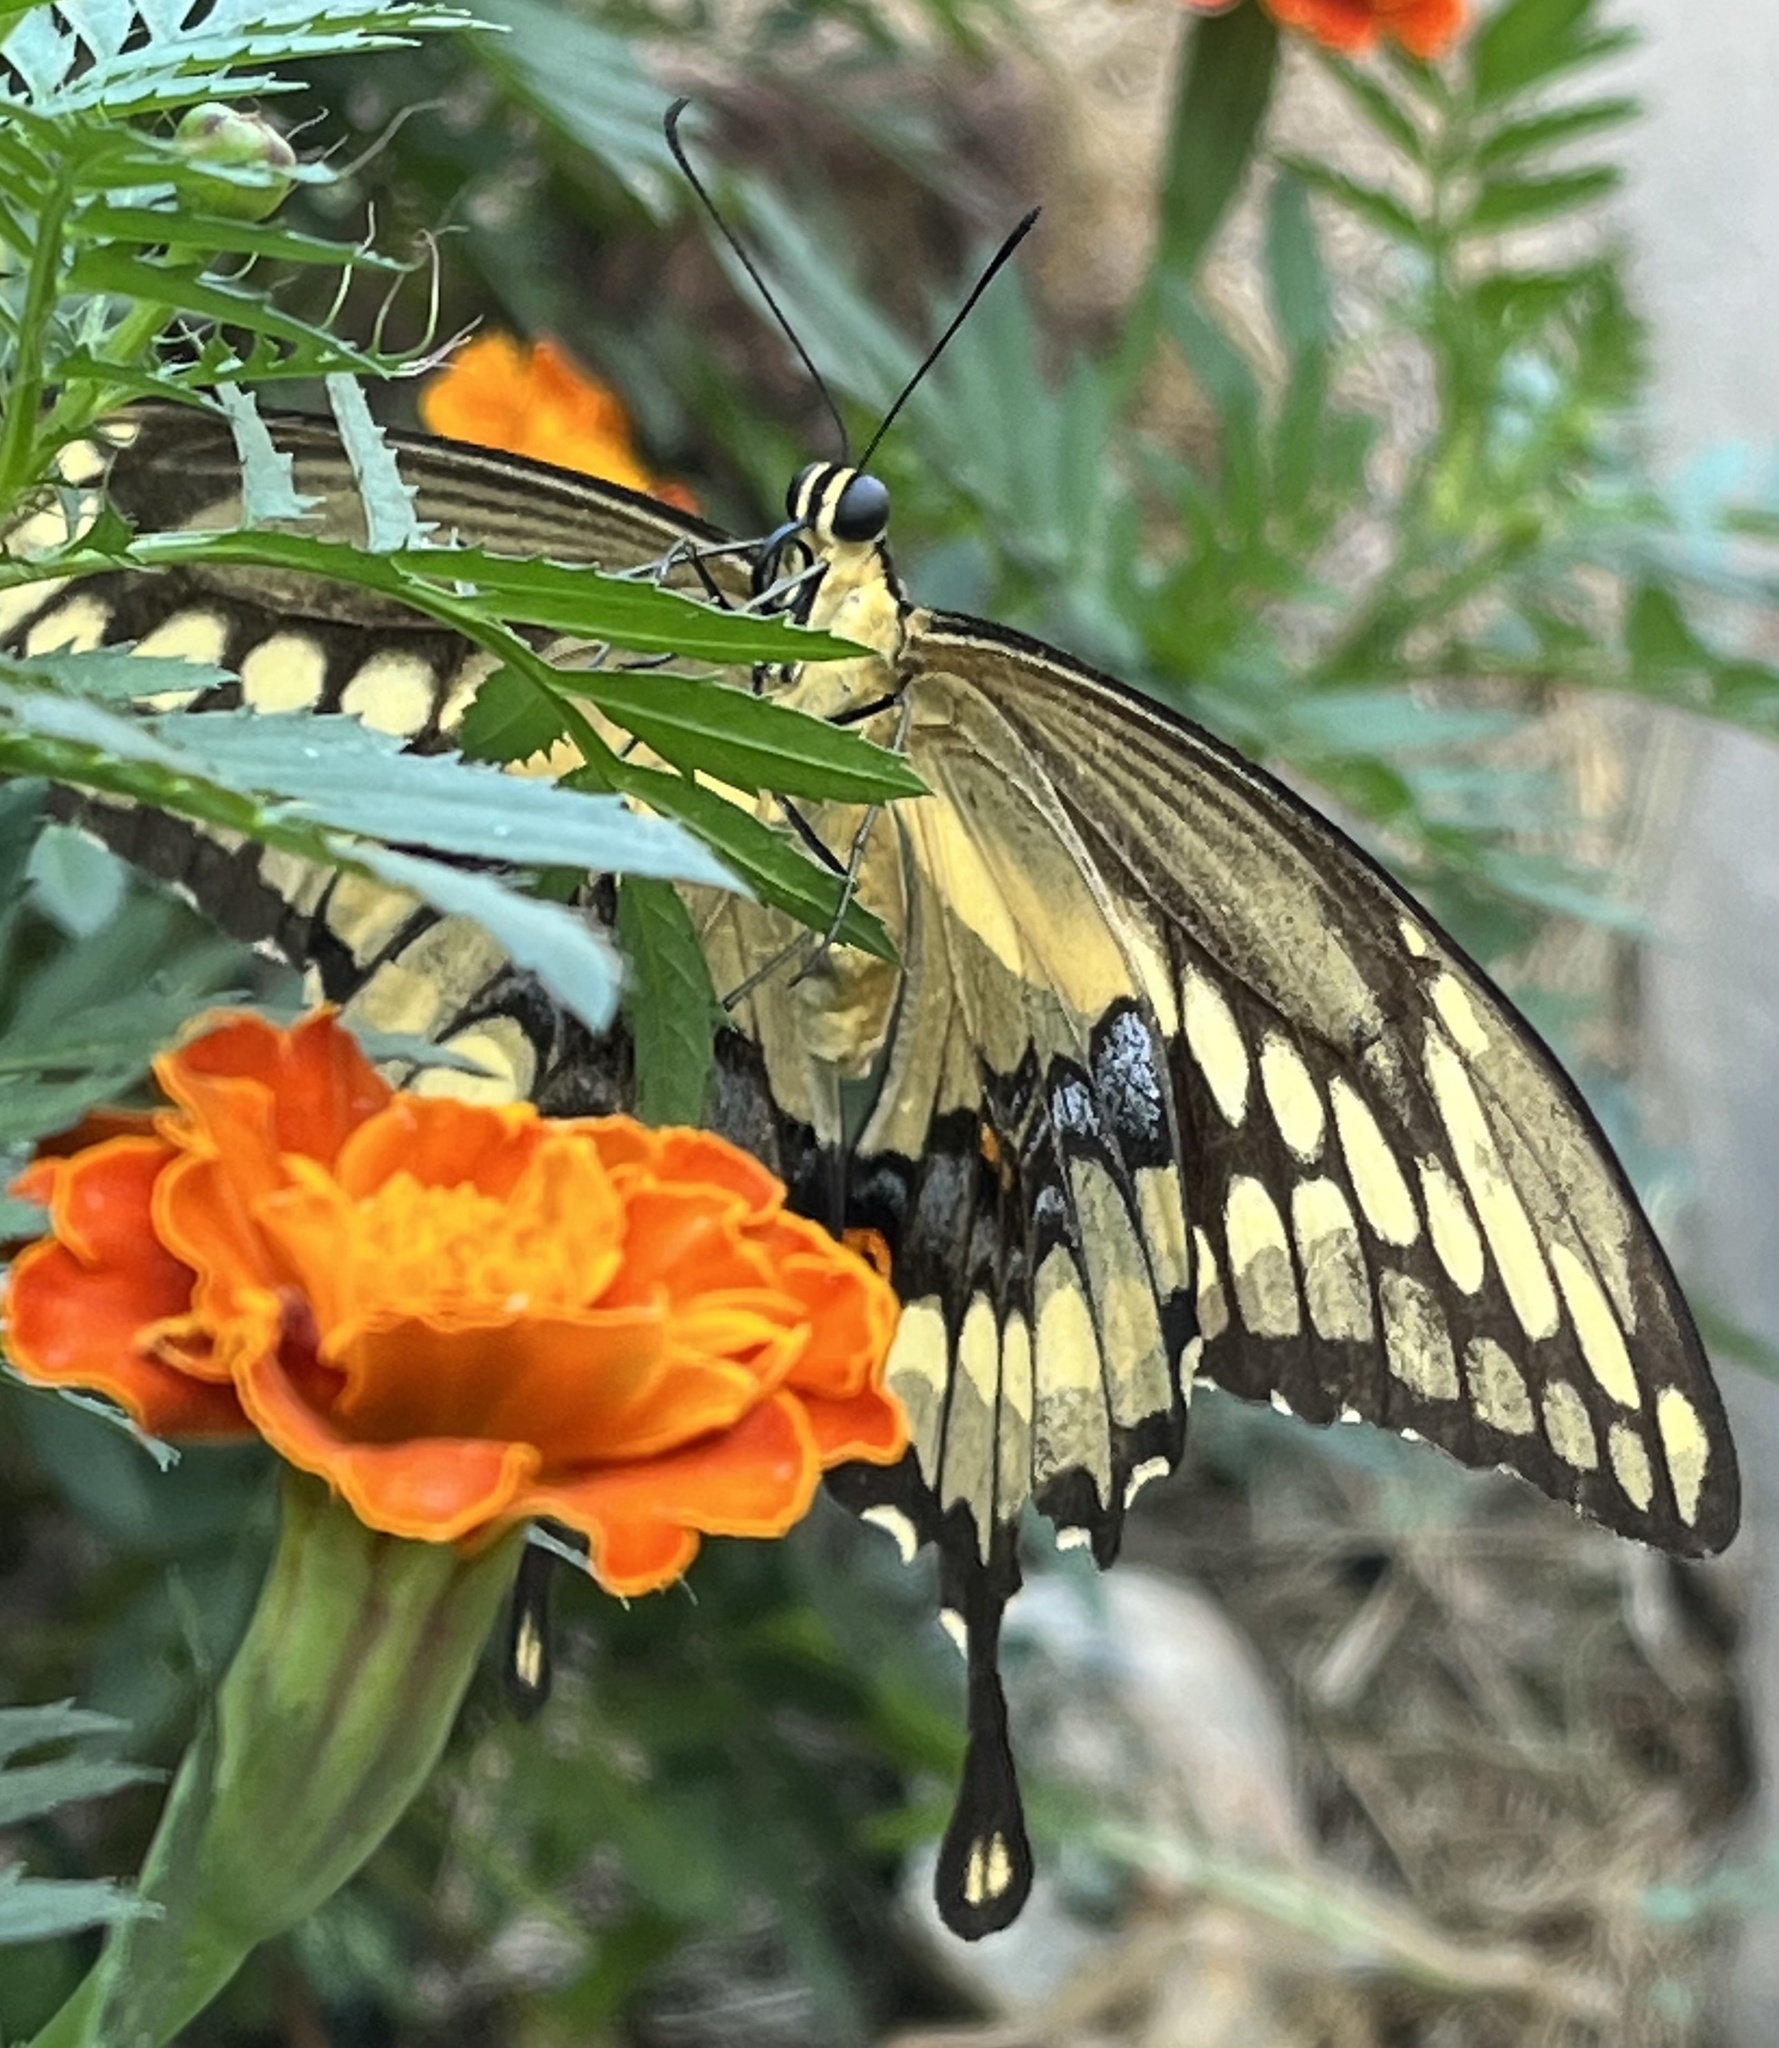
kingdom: Animalia
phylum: Arthropoda
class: Insecta
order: Lepidoptera
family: Papilionidae
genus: Papilio
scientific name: Papilio cresphontes
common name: Giant swallowtail
